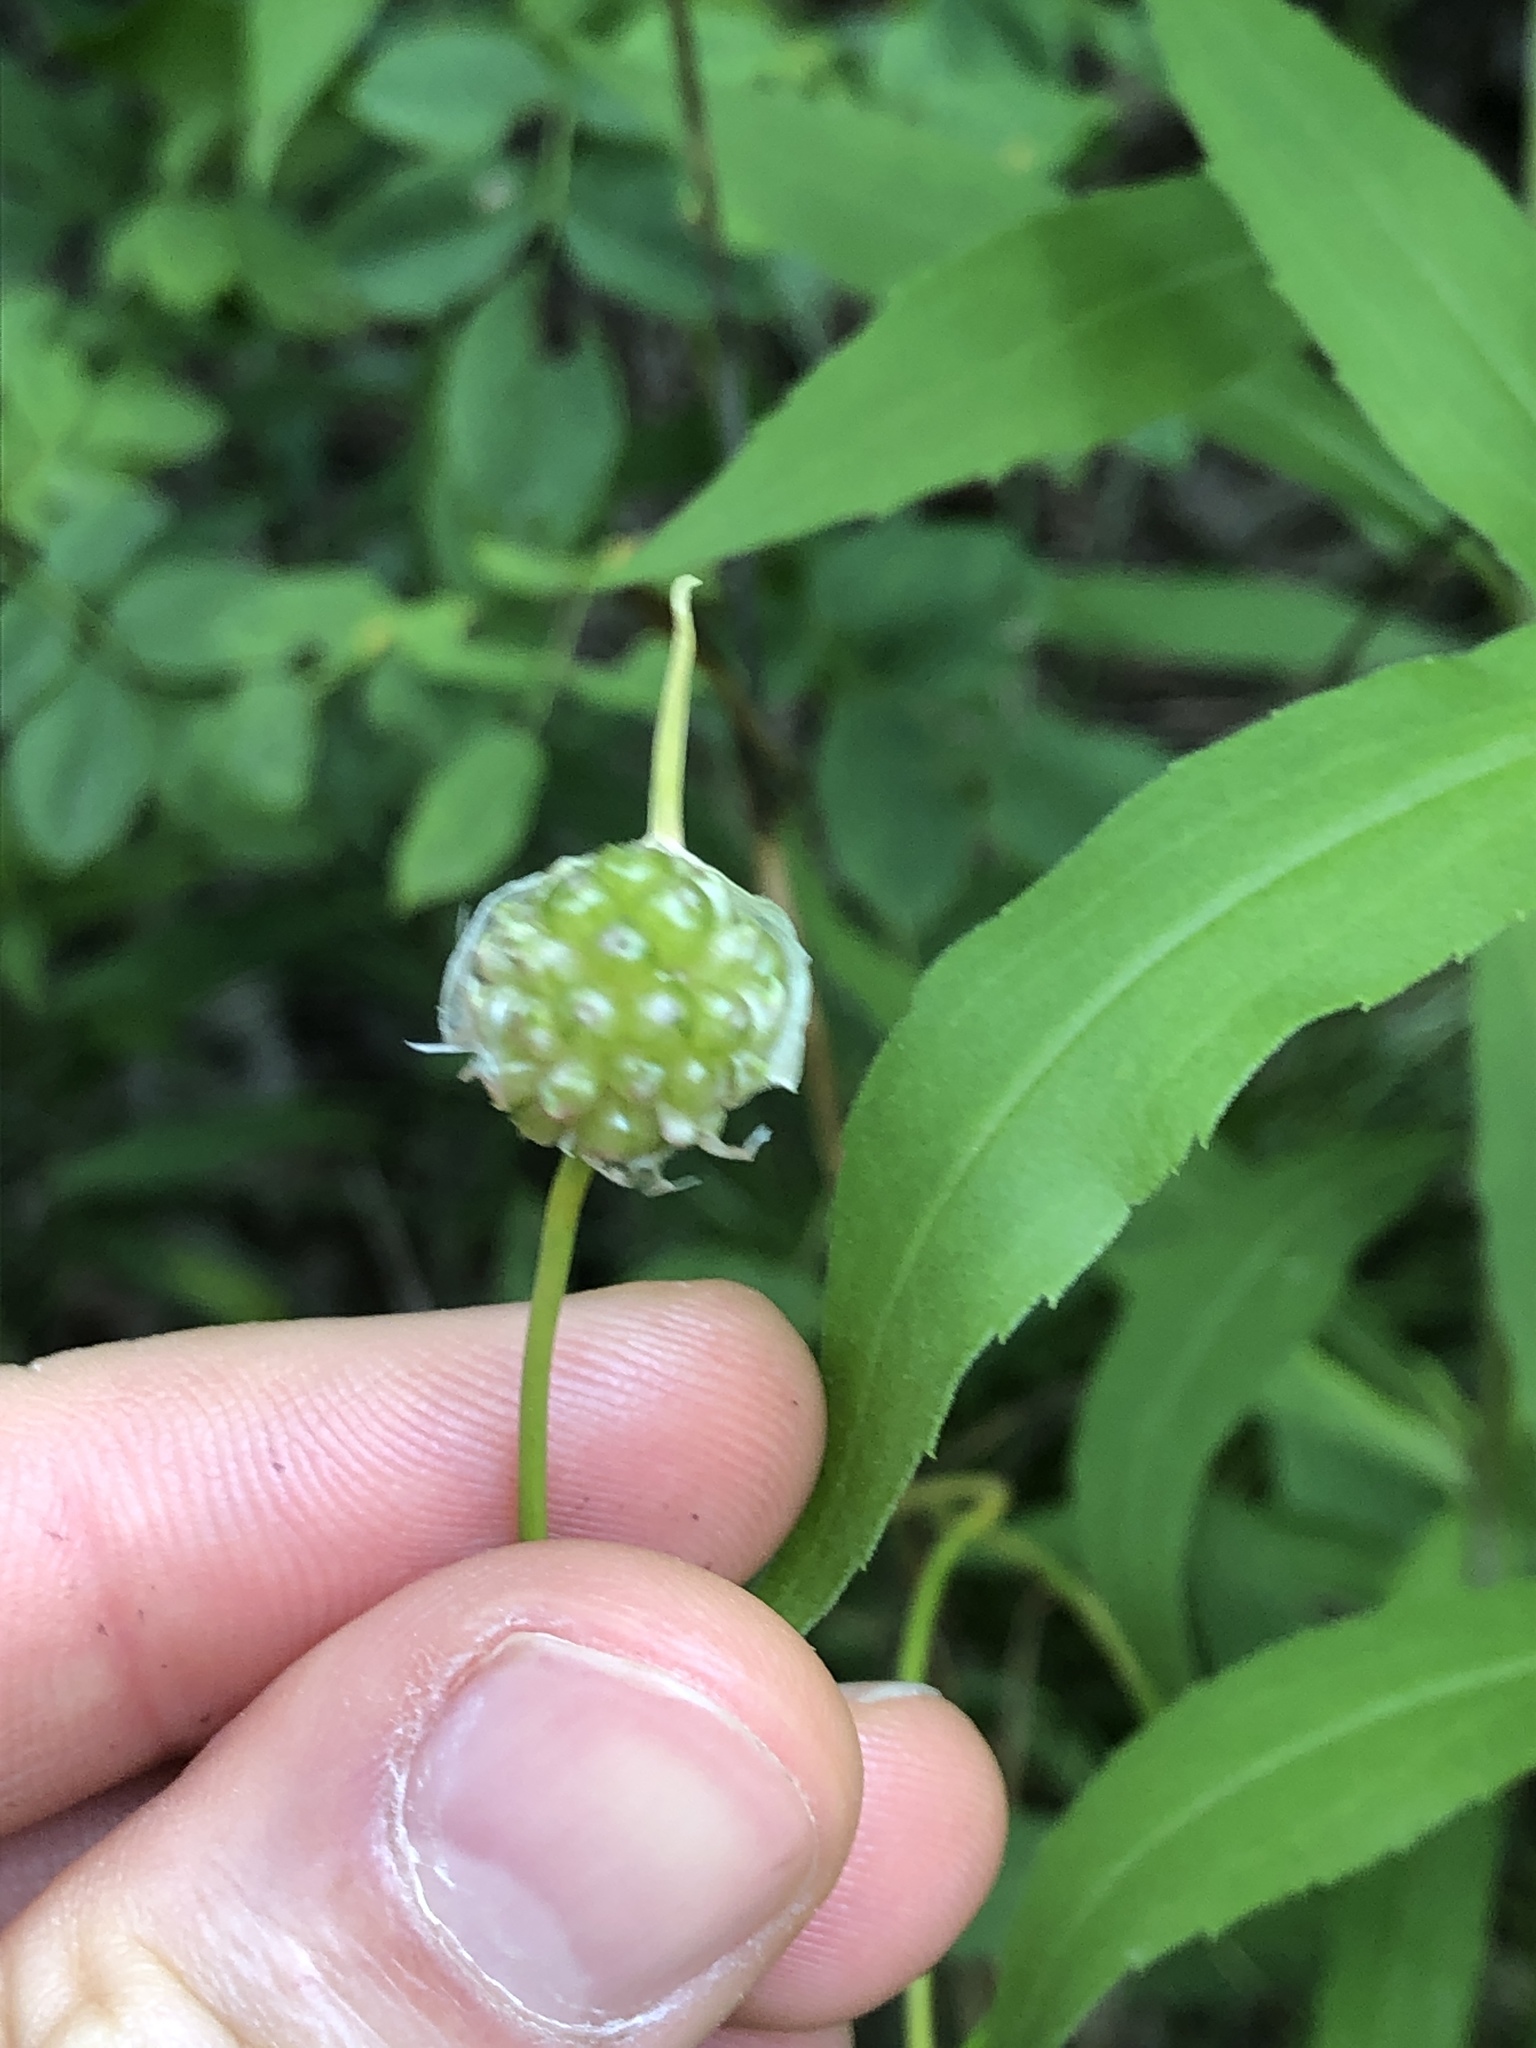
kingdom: Plantae
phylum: Tracheophyta
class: Liliopsida
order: Asparagales
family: Amaryllidaceae
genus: Allium
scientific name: Allium vineale
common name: Crow garlic
